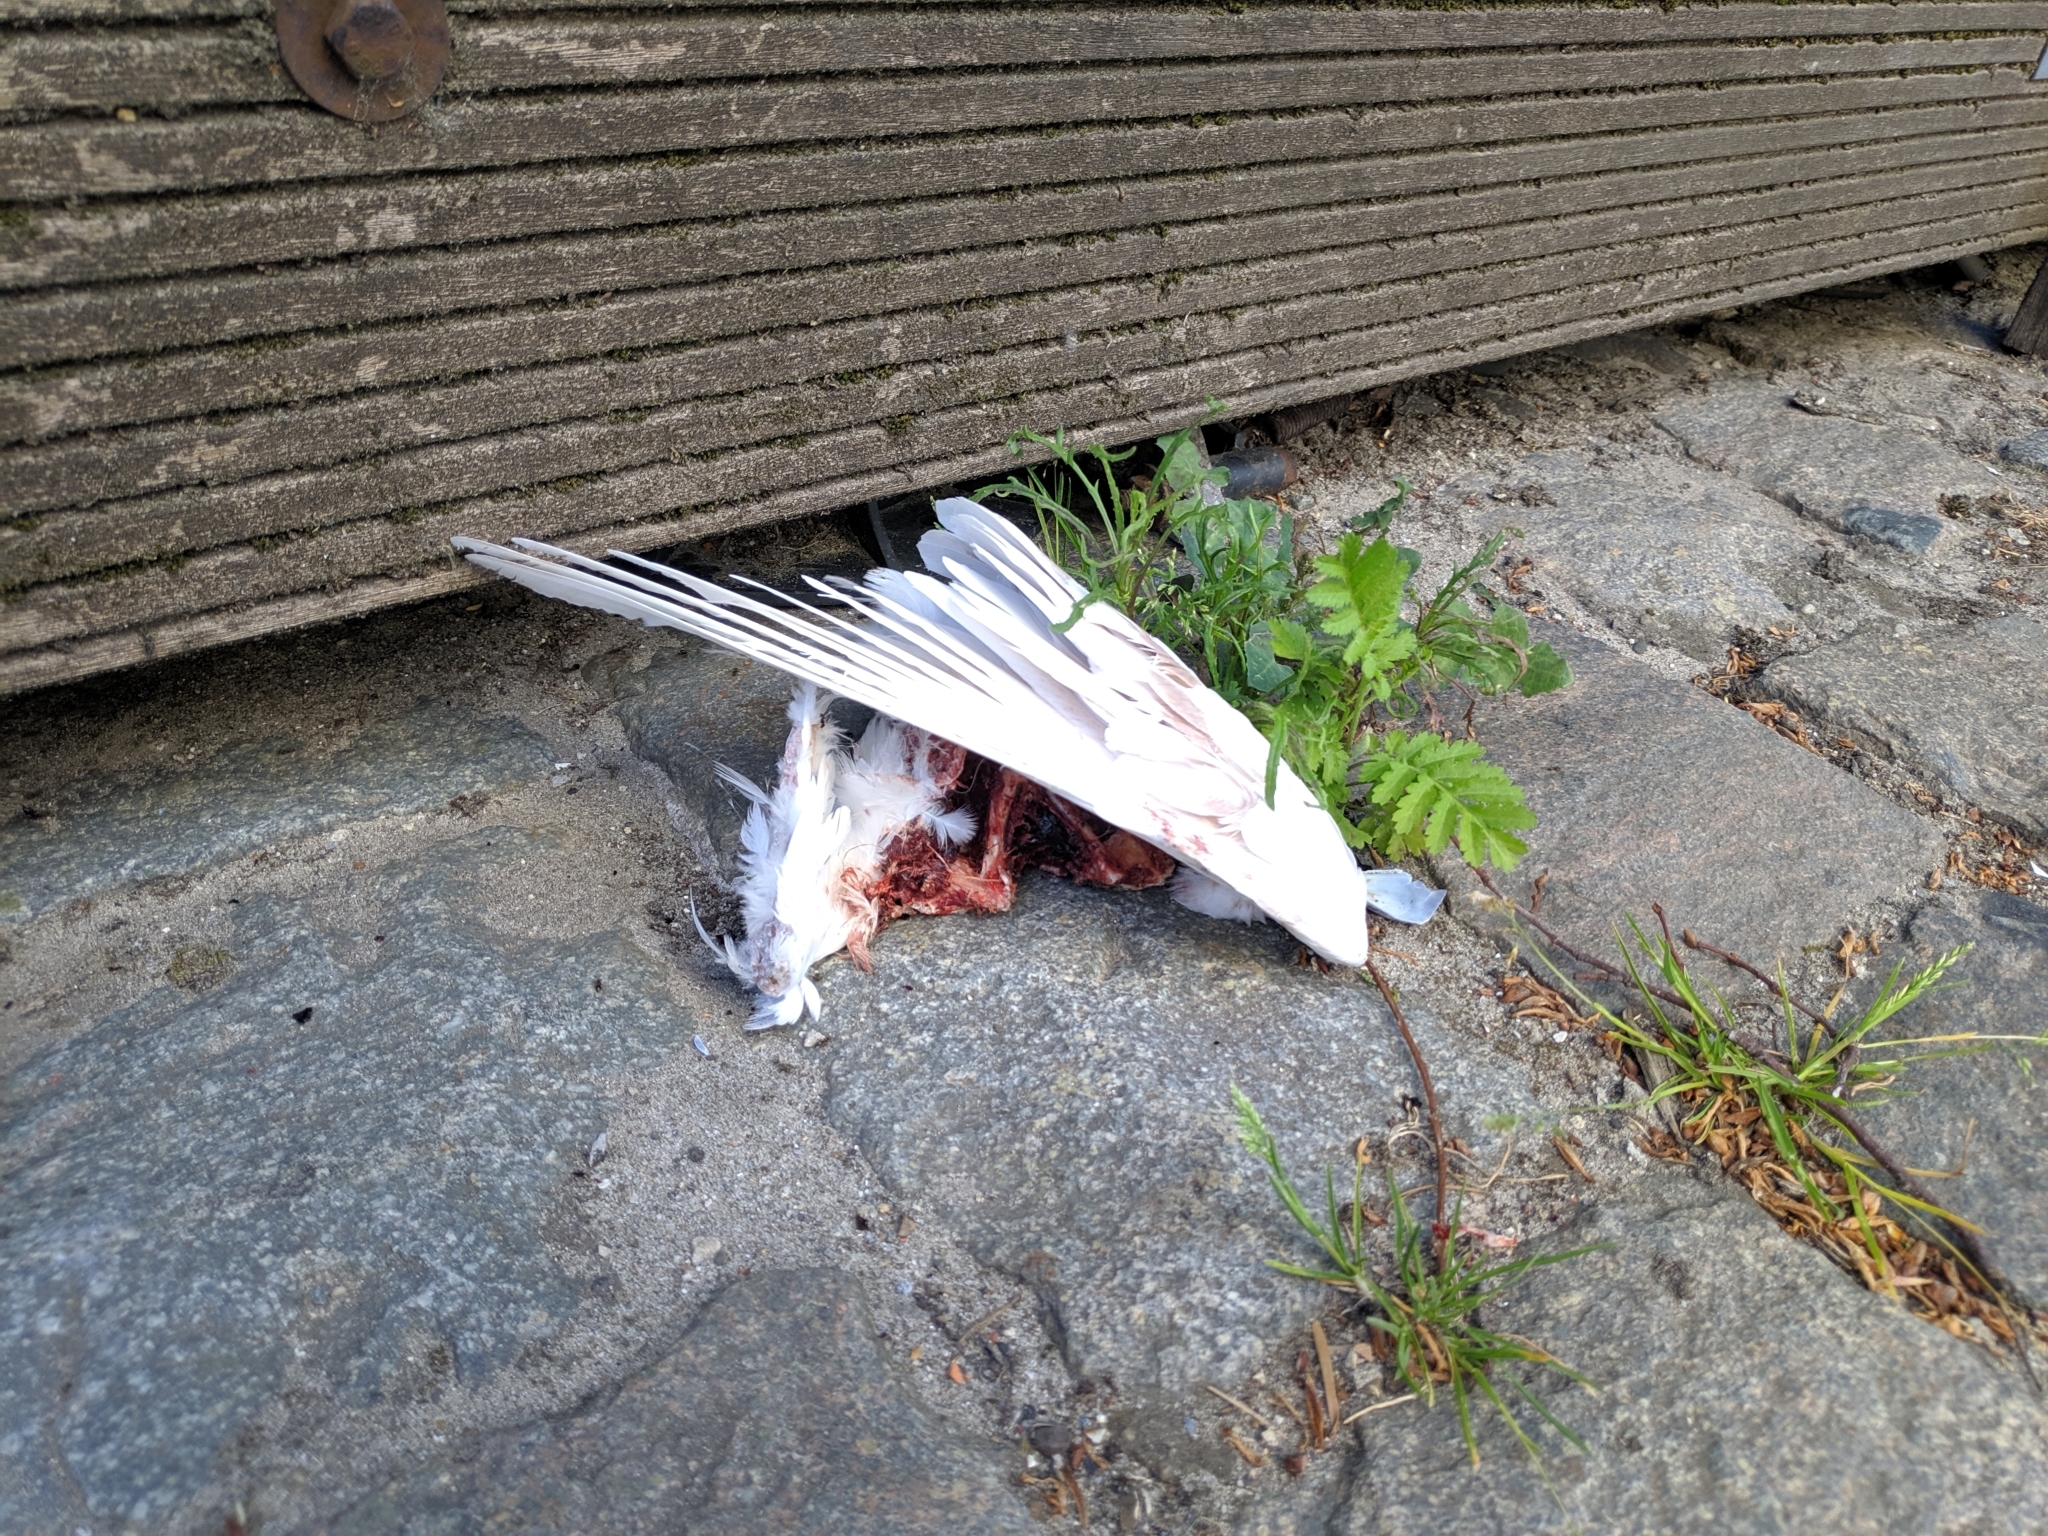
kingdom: Animalia
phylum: Chordata
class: Aves
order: Columbiformes
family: Columbidae
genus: Columba
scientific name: Columba livia
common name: Rock pigeon
